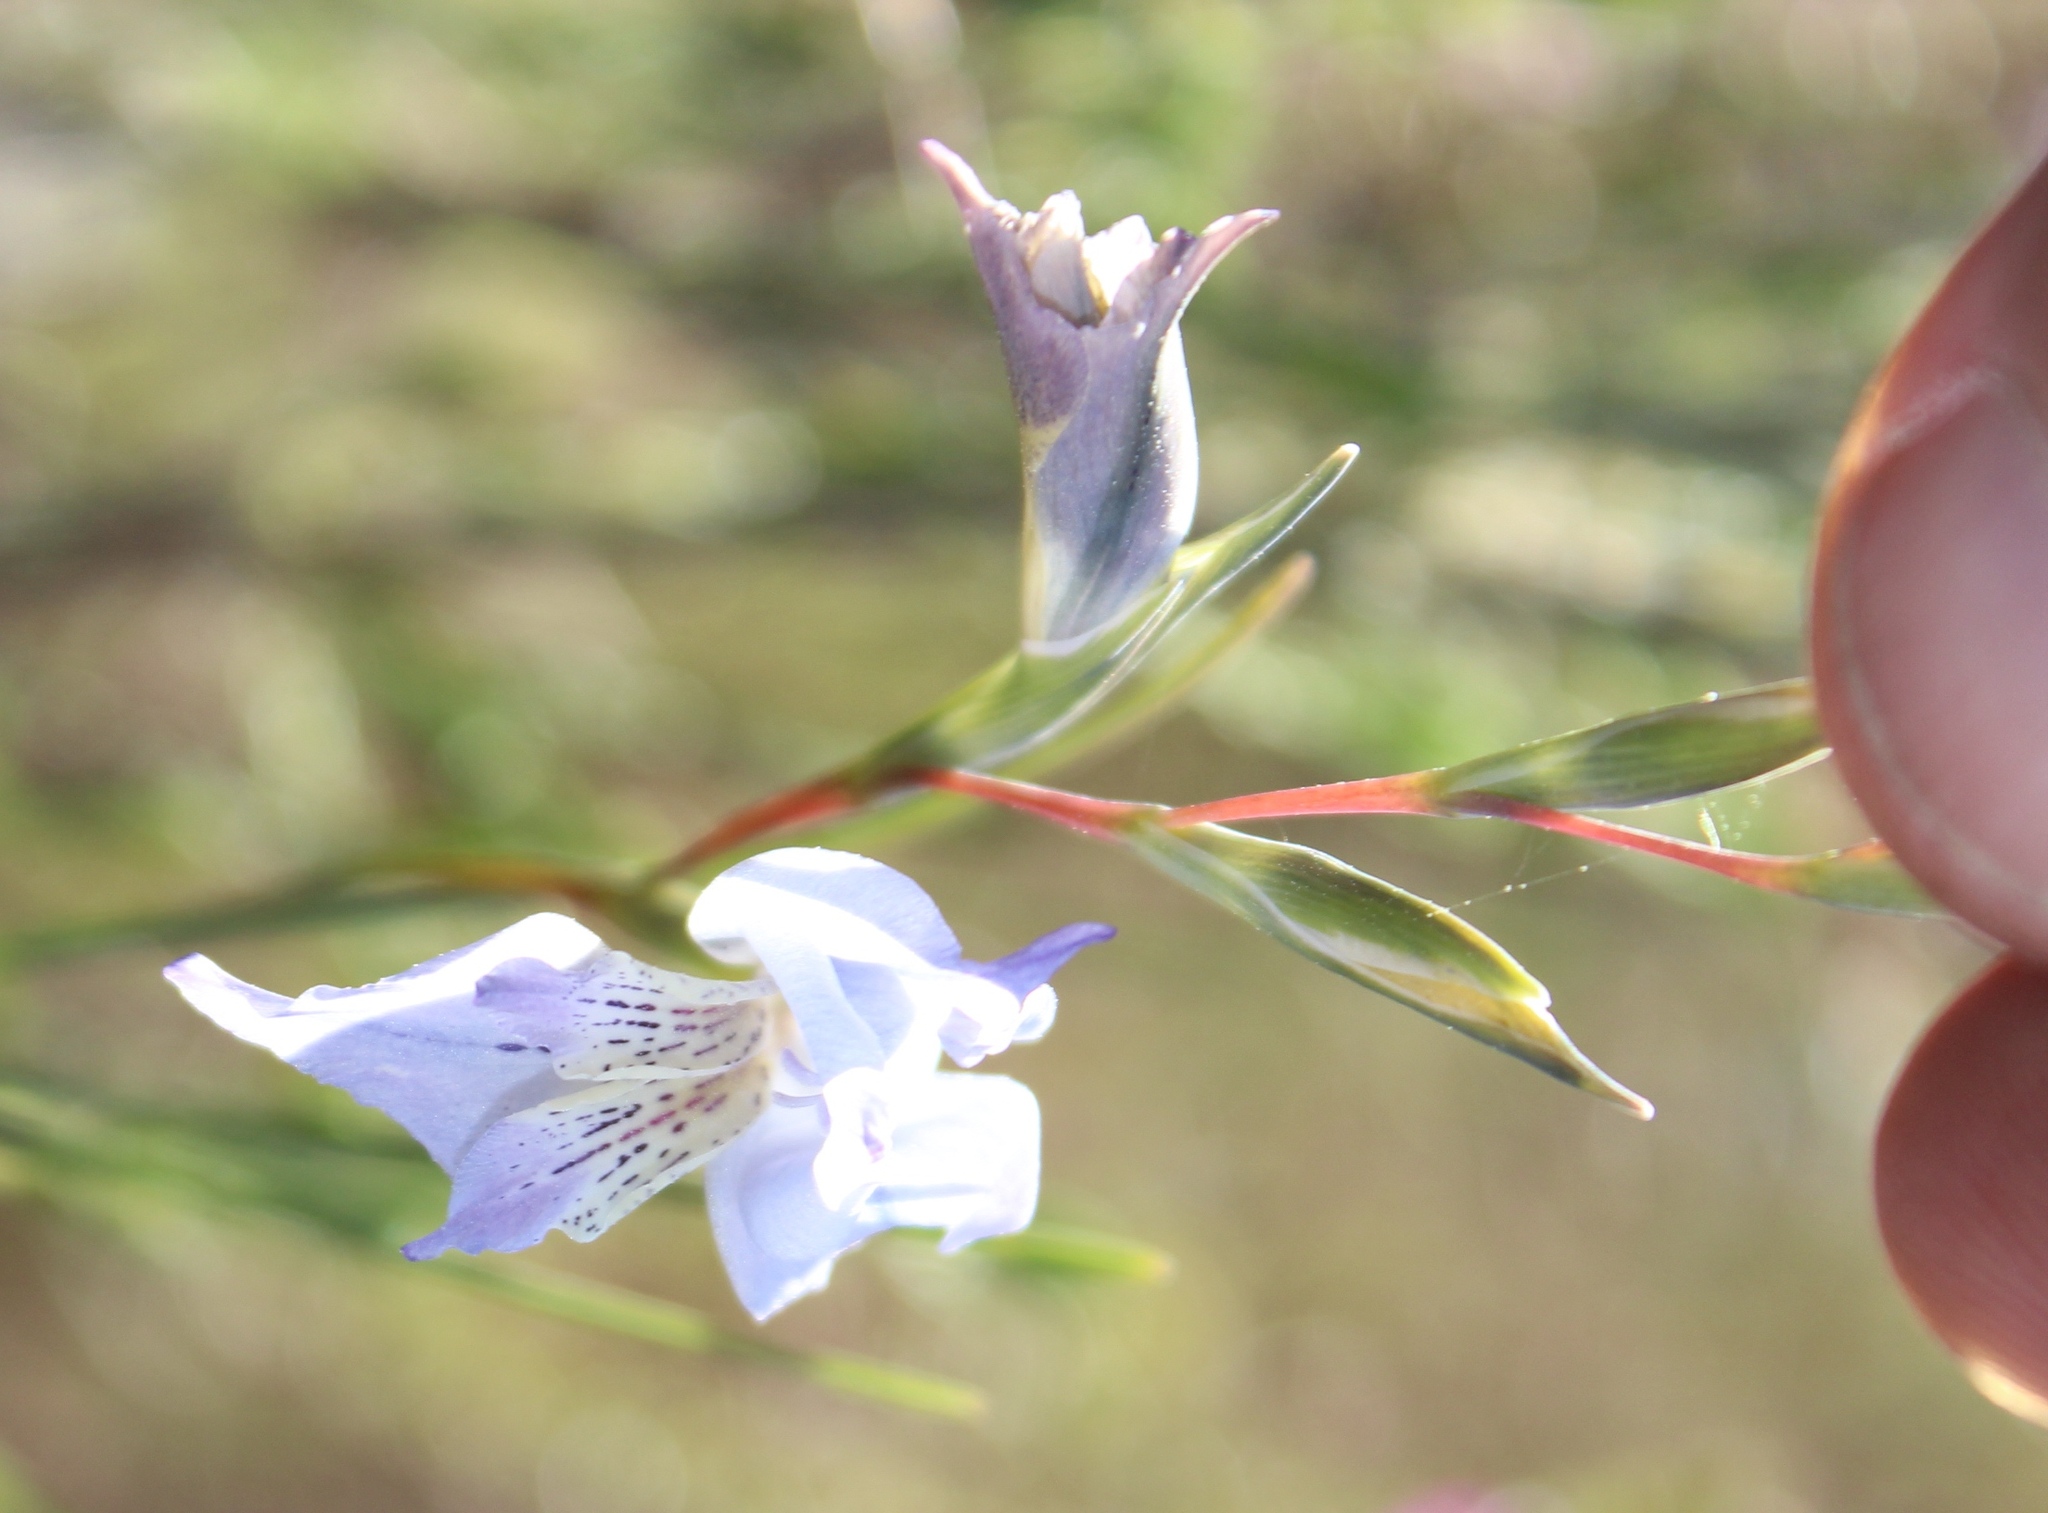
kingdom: Plantae
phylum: Tracheophyta
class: Liliopsida
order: Asparagales
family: Iridaceae
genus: Gladiolus
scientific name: Gladiolus gracilis
